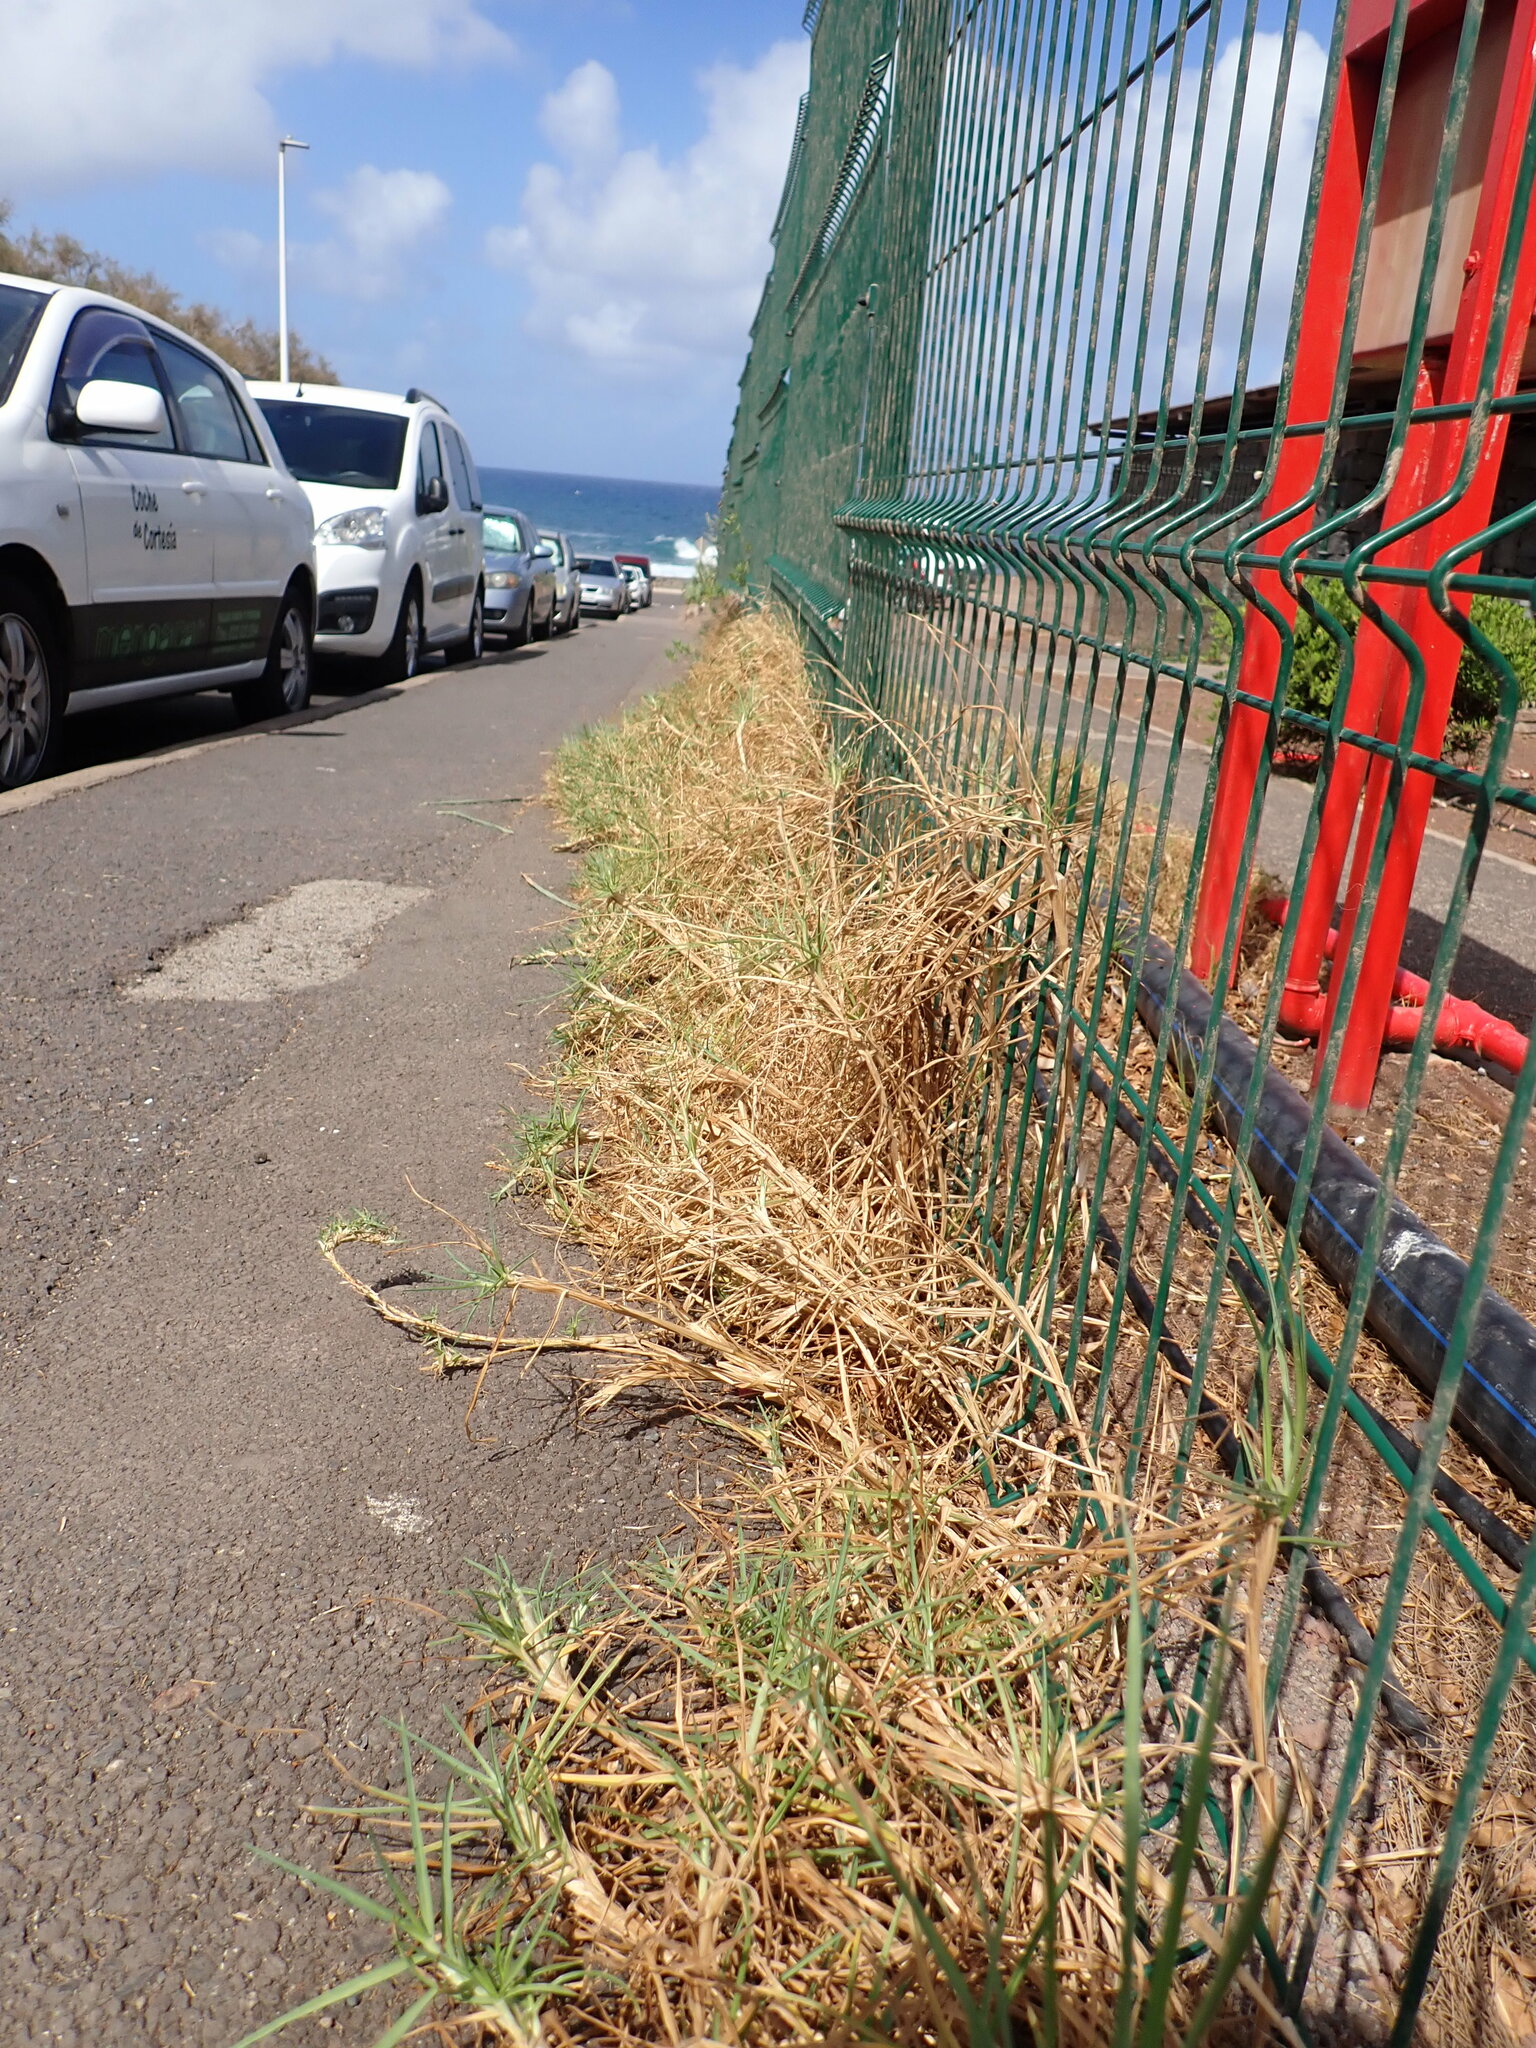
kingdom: Plantae
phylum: Tracheophyta
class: Liliopsida
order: Poales
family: Poaceae
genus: Cenchrus
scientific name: Cenchrus clandestinus
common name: Kikuyugrass
